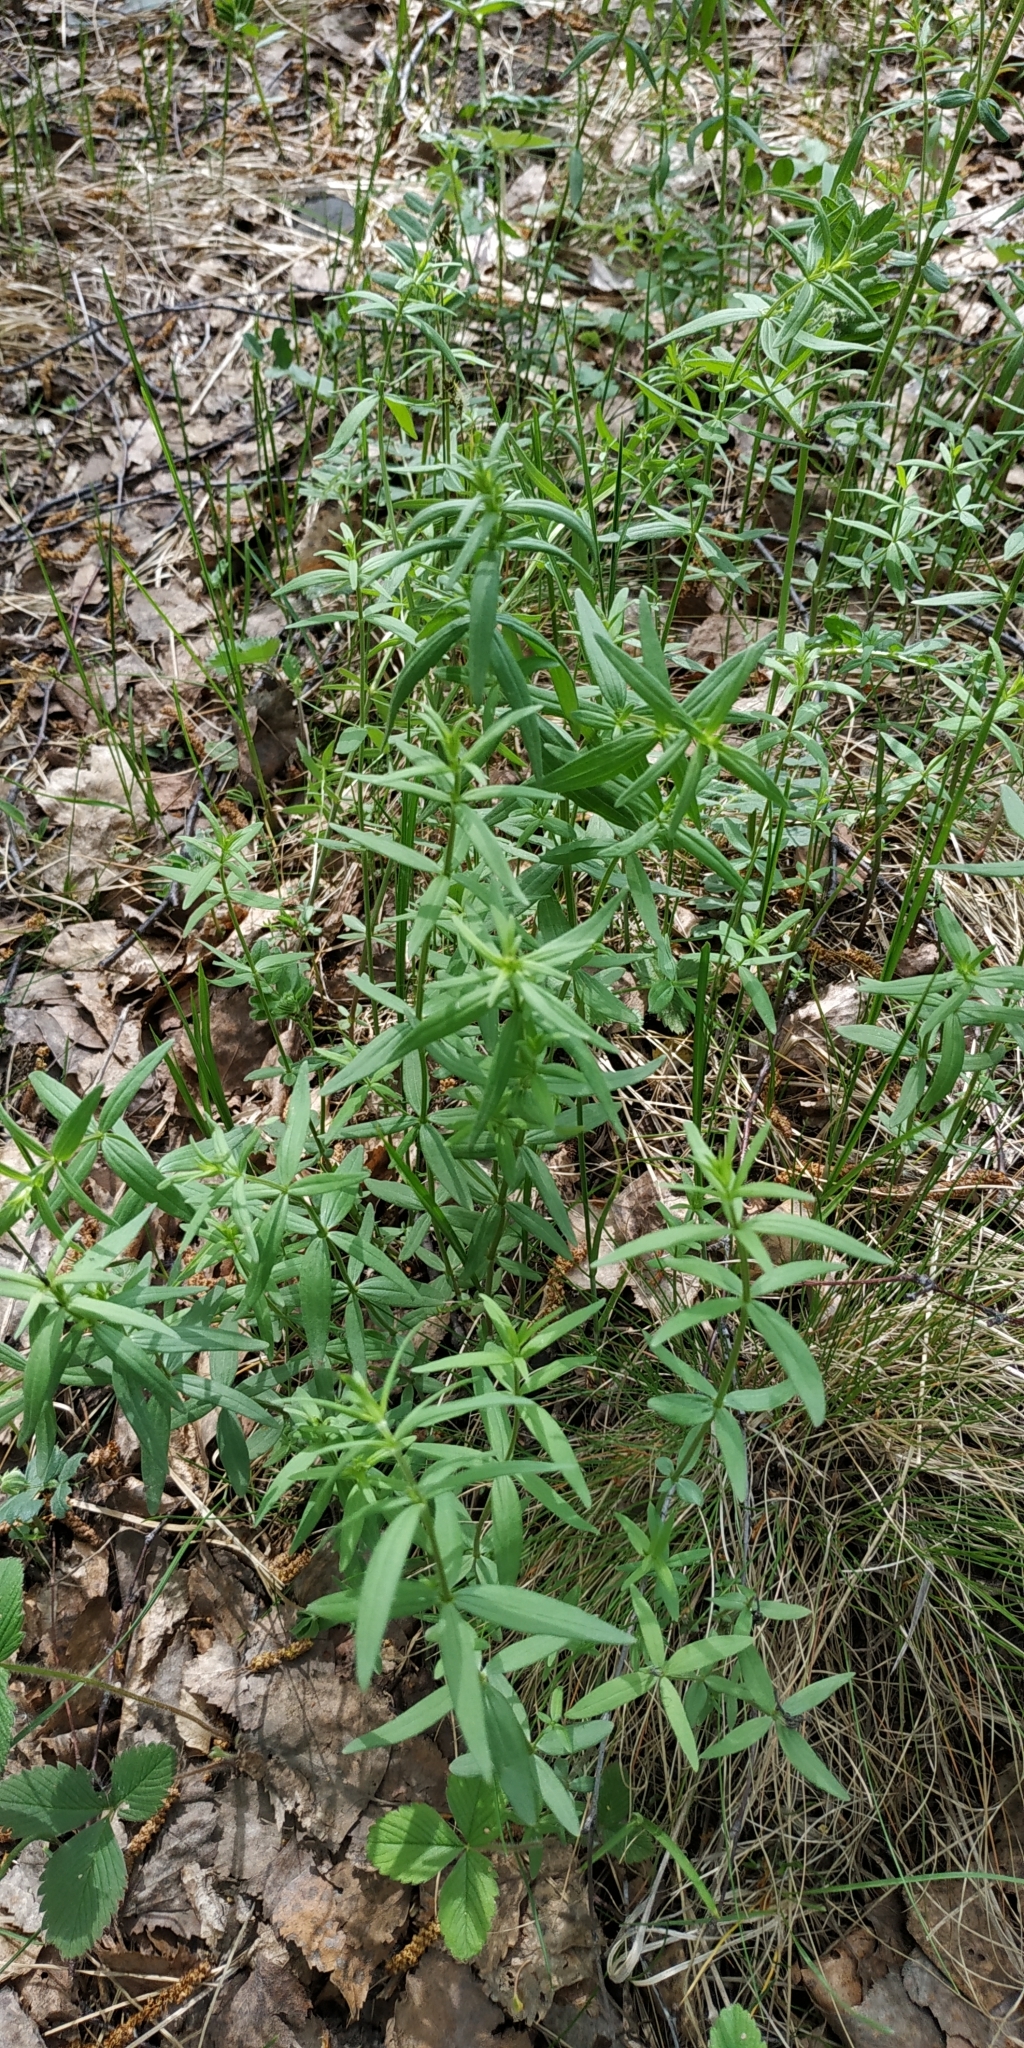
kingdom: Plantae
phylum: Tracheophyta
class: Magnoliopsida
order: Gentianales
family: Rubiaceae
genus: Galium
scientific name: Galium boreale
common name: Northern bedstraw
